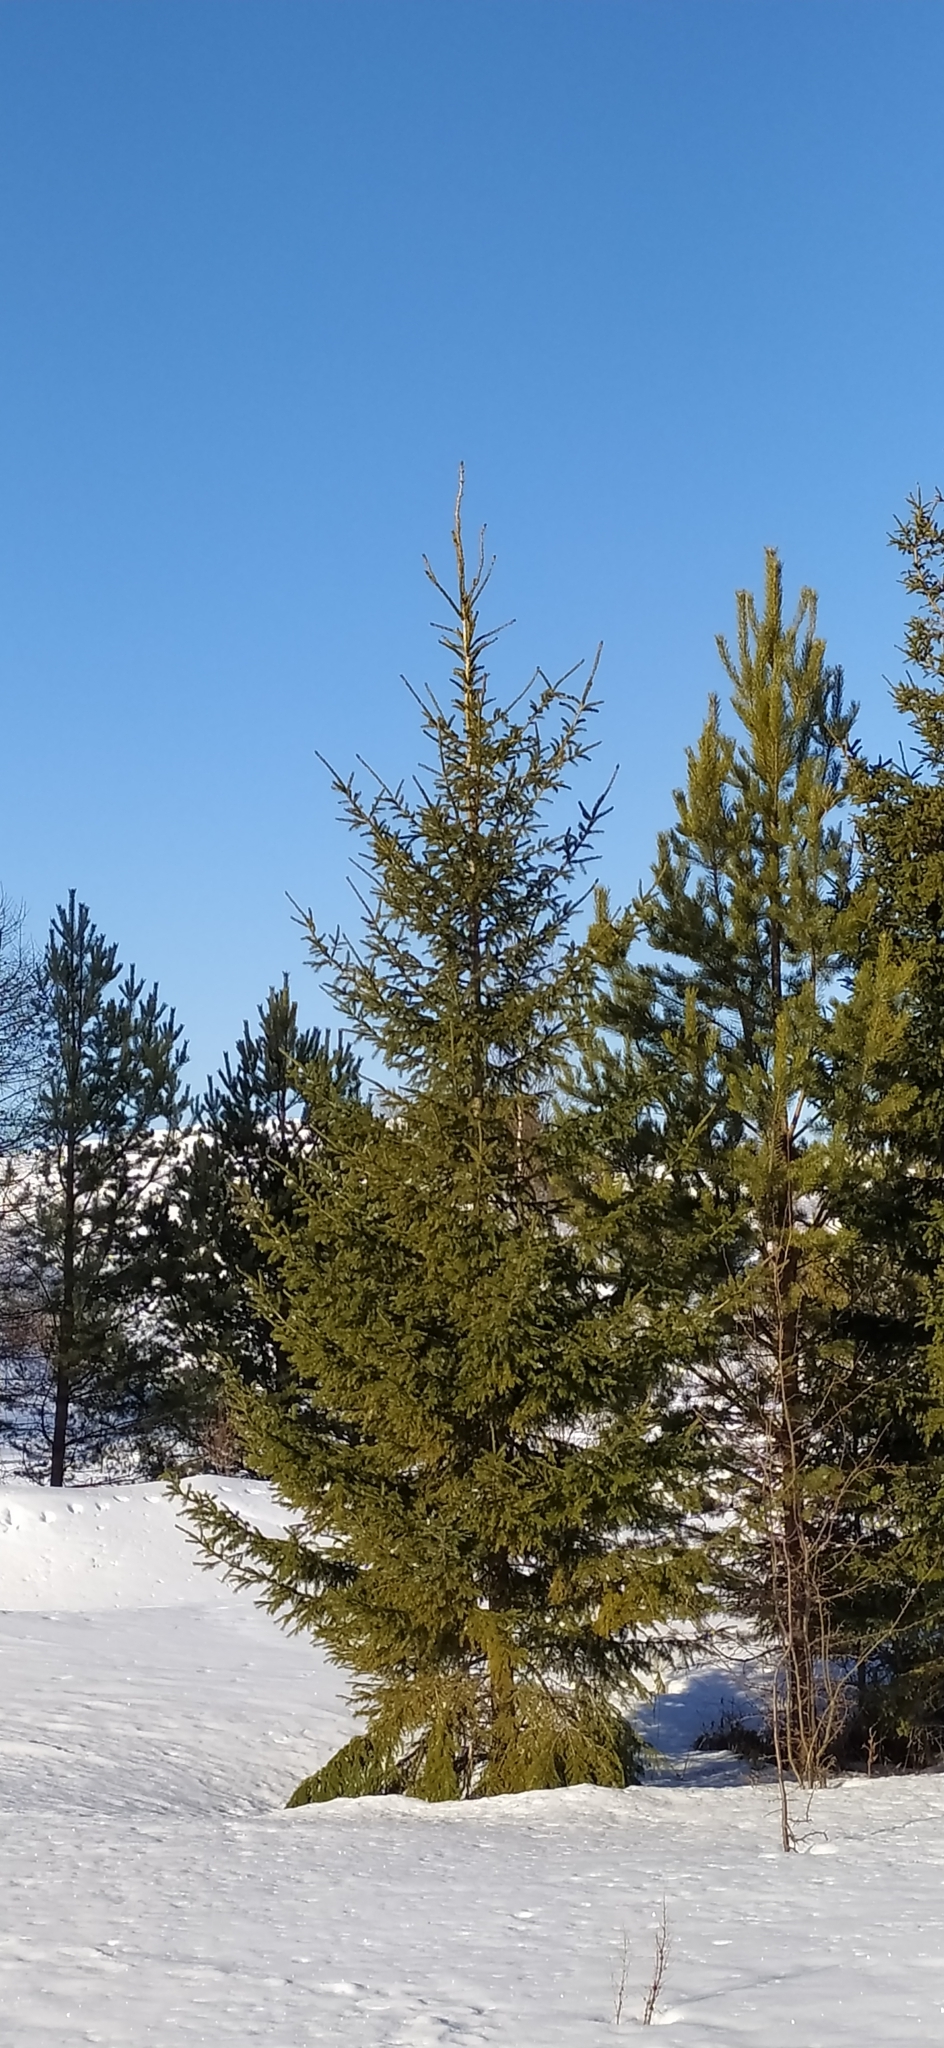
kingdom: Plantae
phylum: Tracheophyta
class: Pinopsida
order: Pinales
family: Pinaceae
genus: Picea
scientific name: Picea obovata
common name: Siberian spruce
